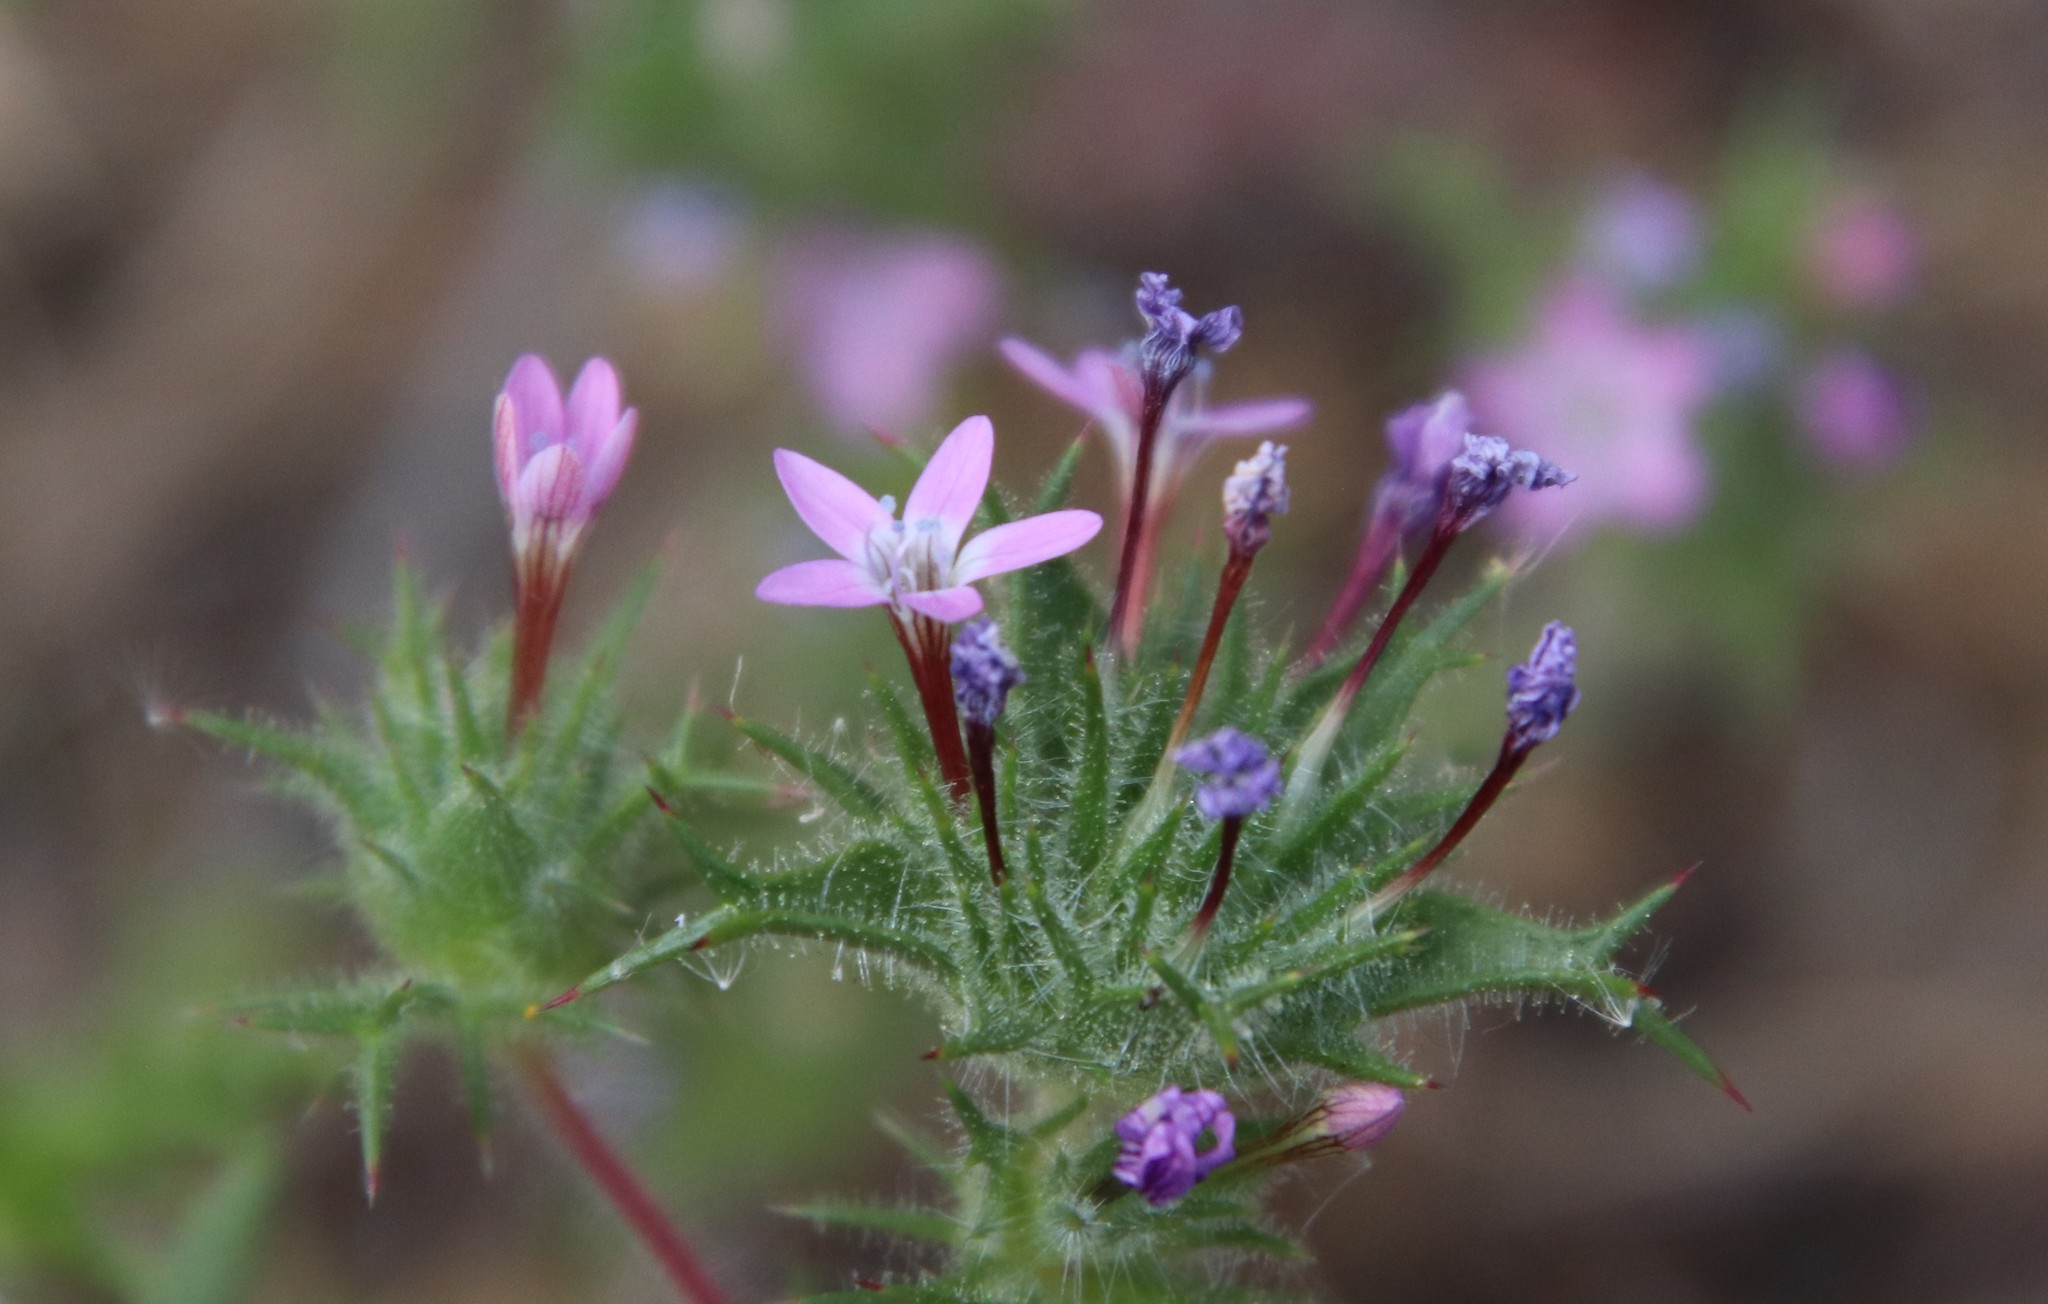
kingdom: Plantae
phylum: Tracheophyta
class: Magnoliopsida
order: Ericales
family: Polemoniaceae
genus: Navarretia
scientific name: Navarretia hamata
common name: Hooked navarretia
